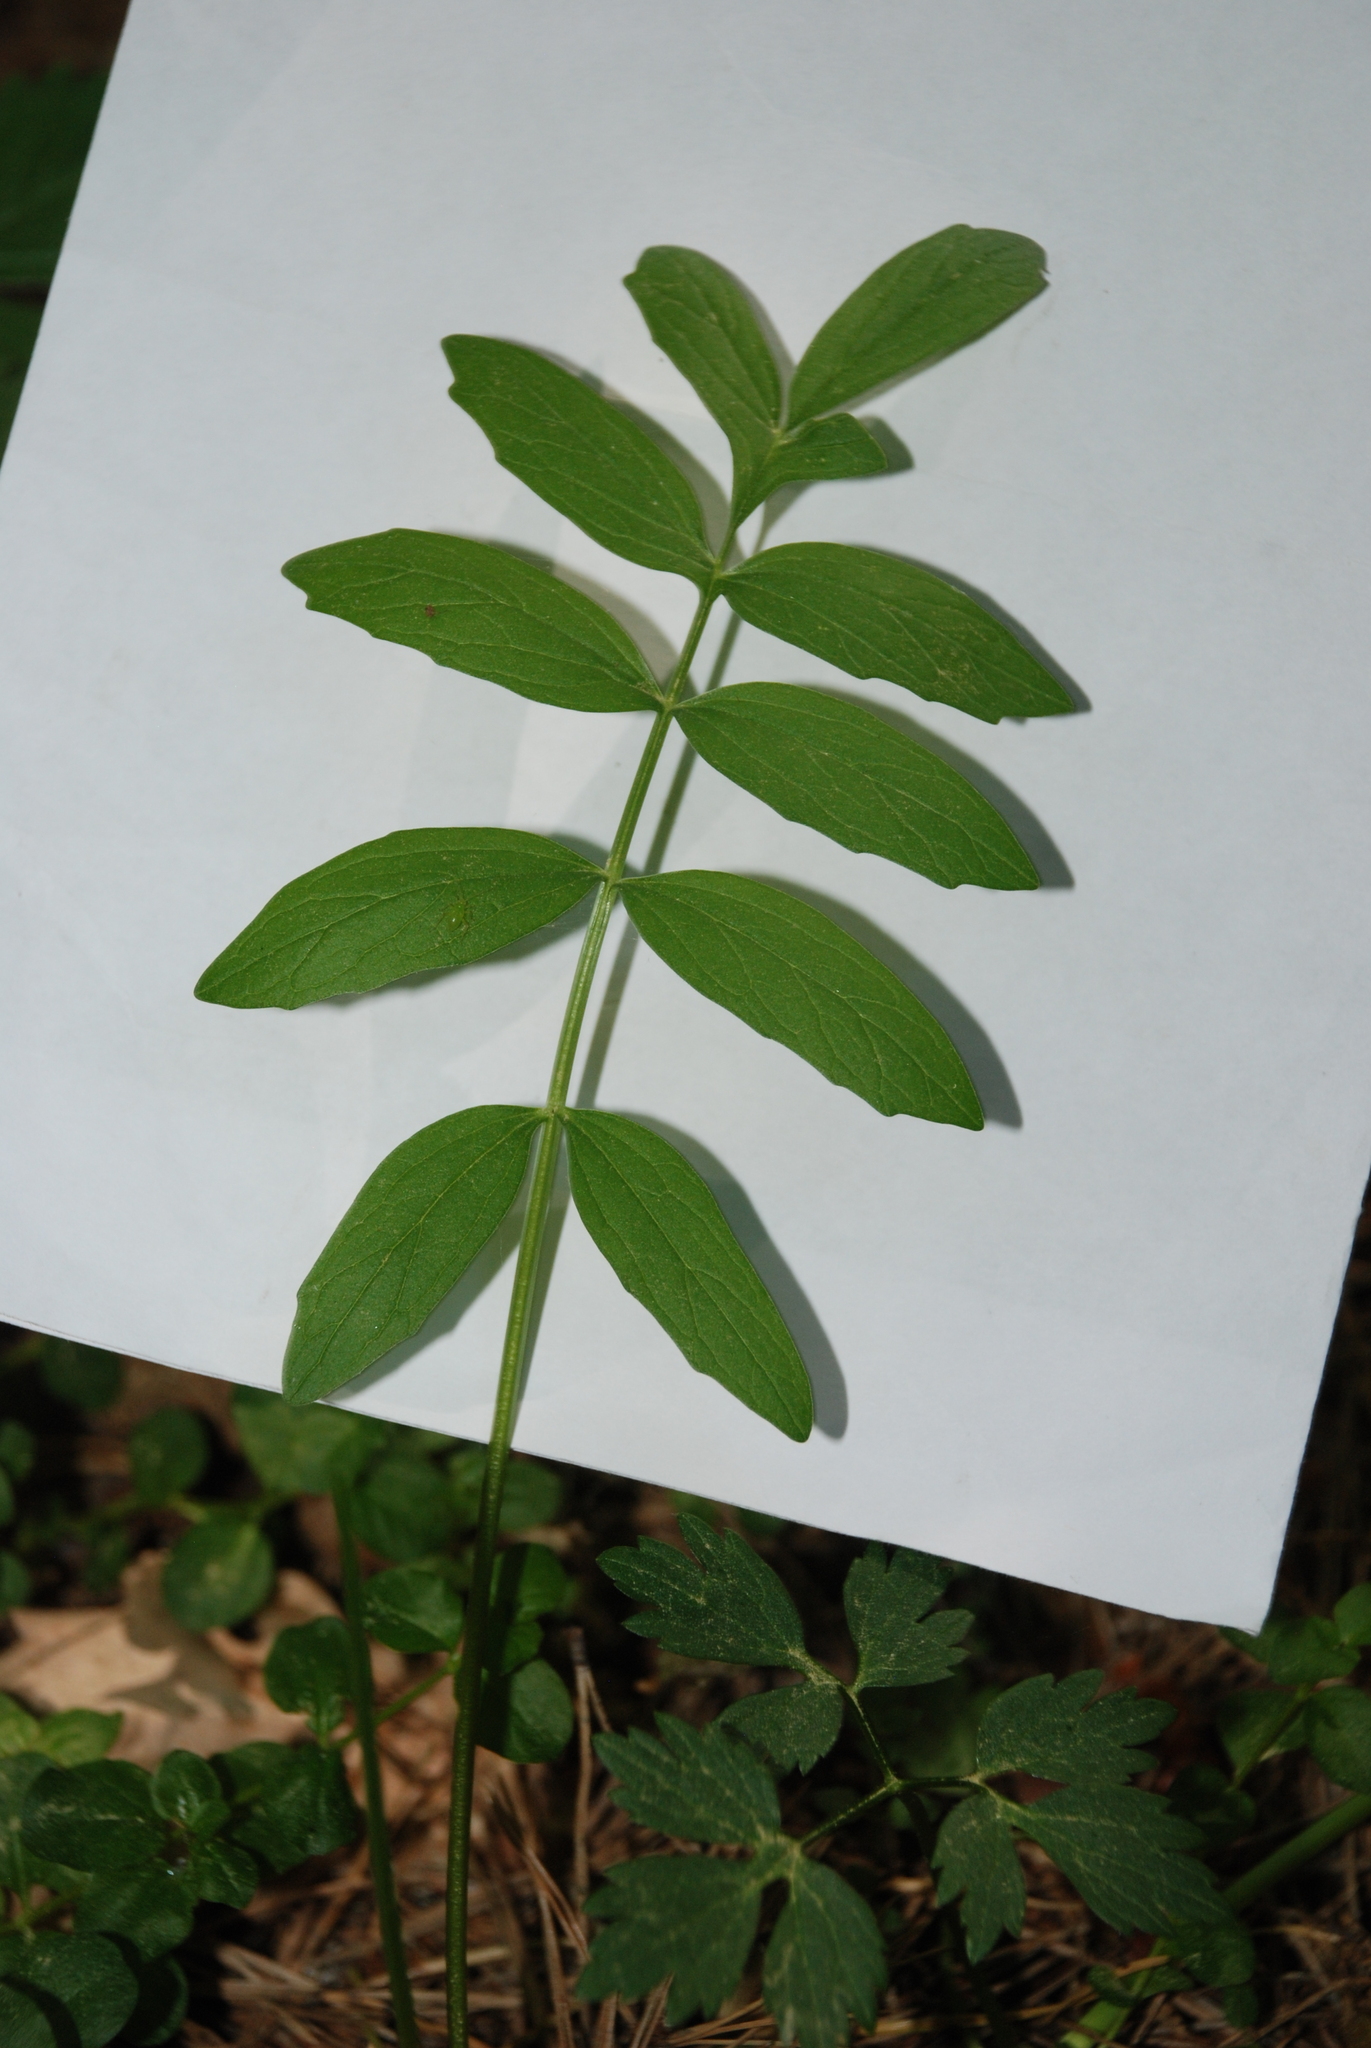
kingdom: Plantae
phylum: Tracheophyta
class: Magnoliopsida
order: Dipsacales
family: Caprifoliaceae
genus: Valeriana
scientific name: Valeriana officinalis
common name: Common valerian
